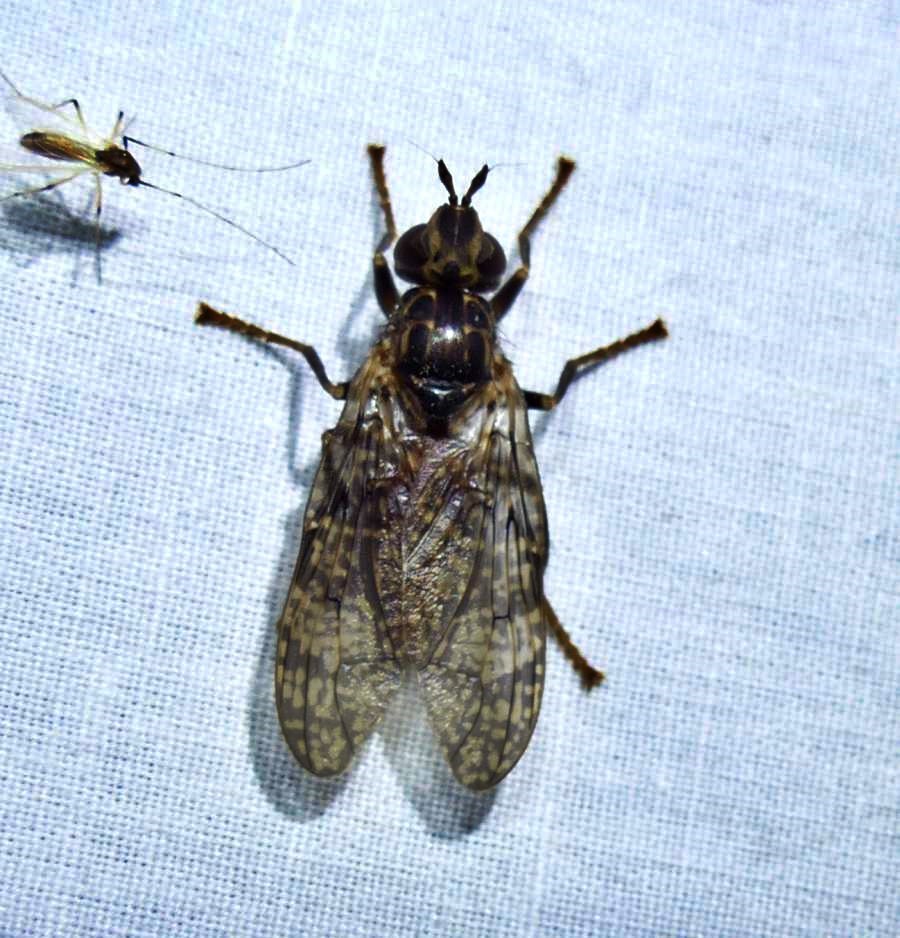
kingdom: Animalia
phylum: Arthropoda
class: Insecta
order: Diptera
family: Pyrgotidae
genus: Pyrgota
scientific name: Pyrgota valida
